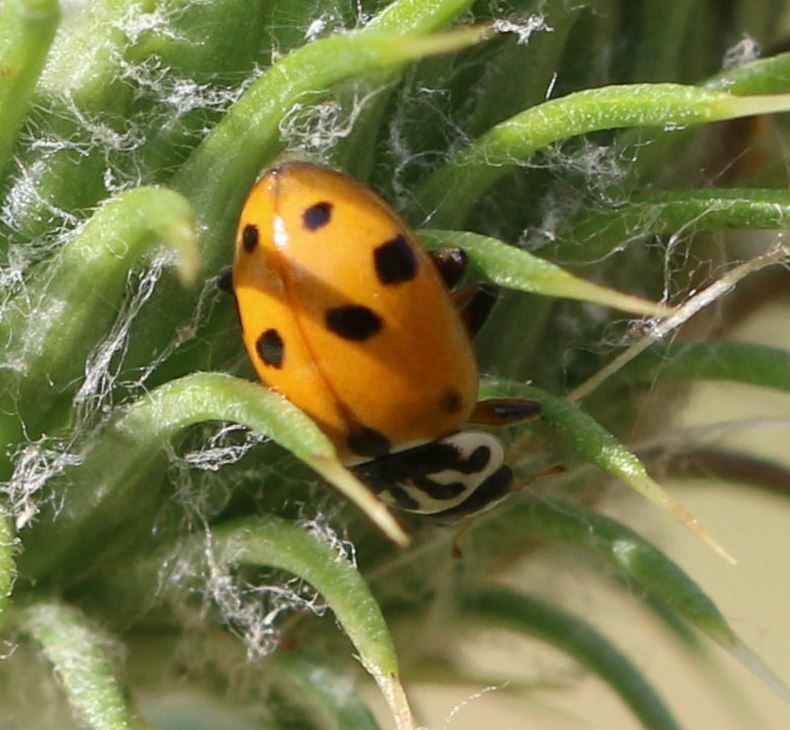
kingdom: Animalia
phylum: Arthropoda
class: Insecta
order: Coleoptera
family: Coccinellidae
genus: Hippodamia
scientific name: Hippodamia variegata
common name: Ladybird beetle
